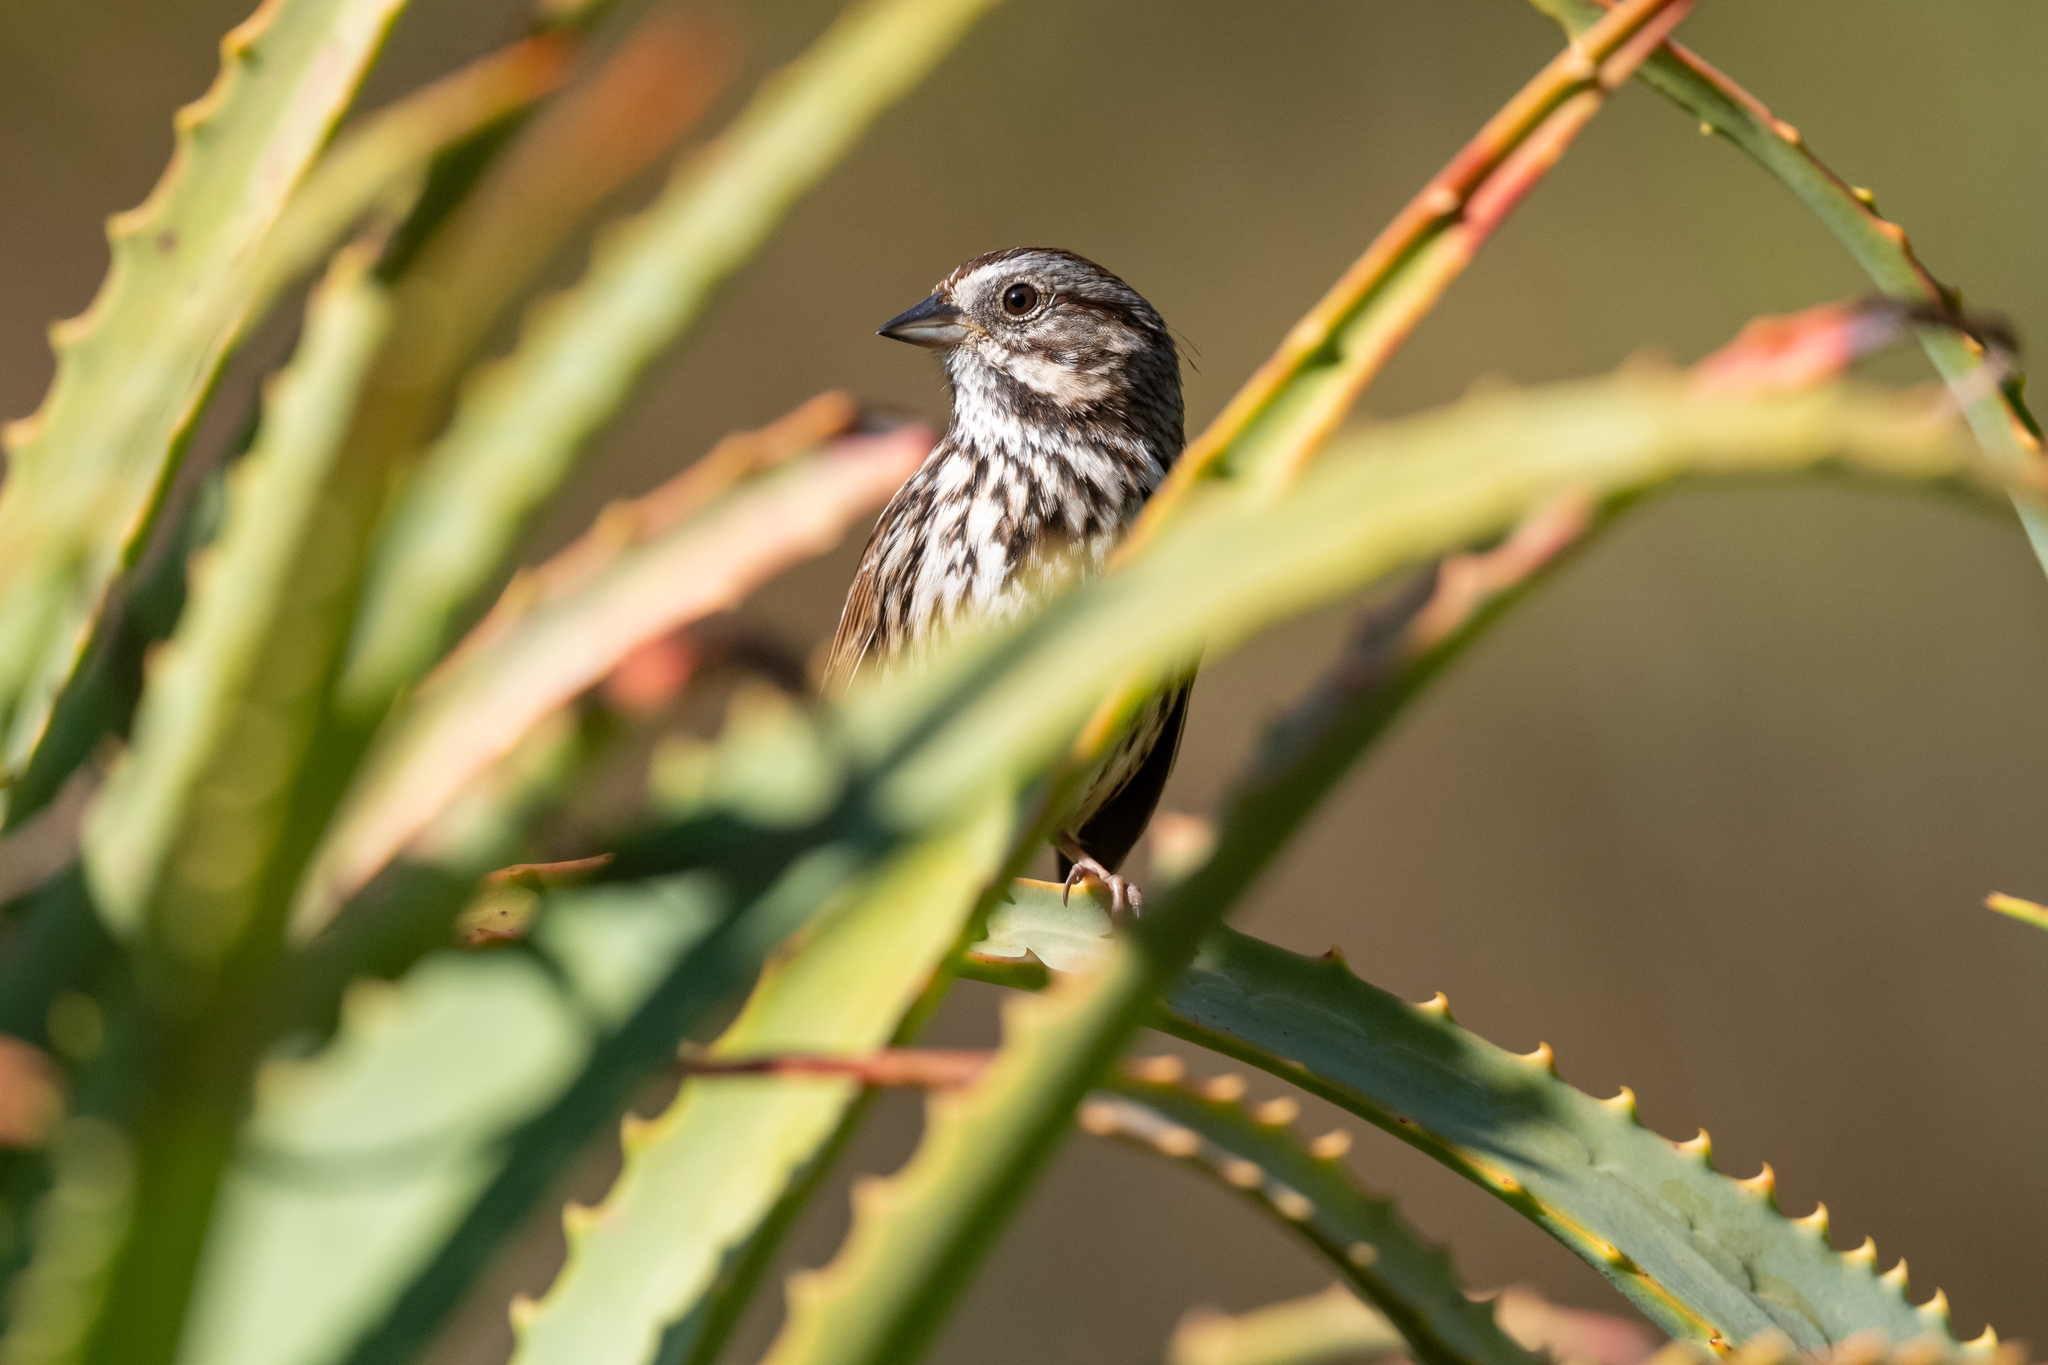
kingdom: Animalia
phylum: Chordata
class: Aves
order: Passeriformes
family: Passerellidae
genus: Melospiza
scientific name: Melospiza melodia
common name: Song sparrow
